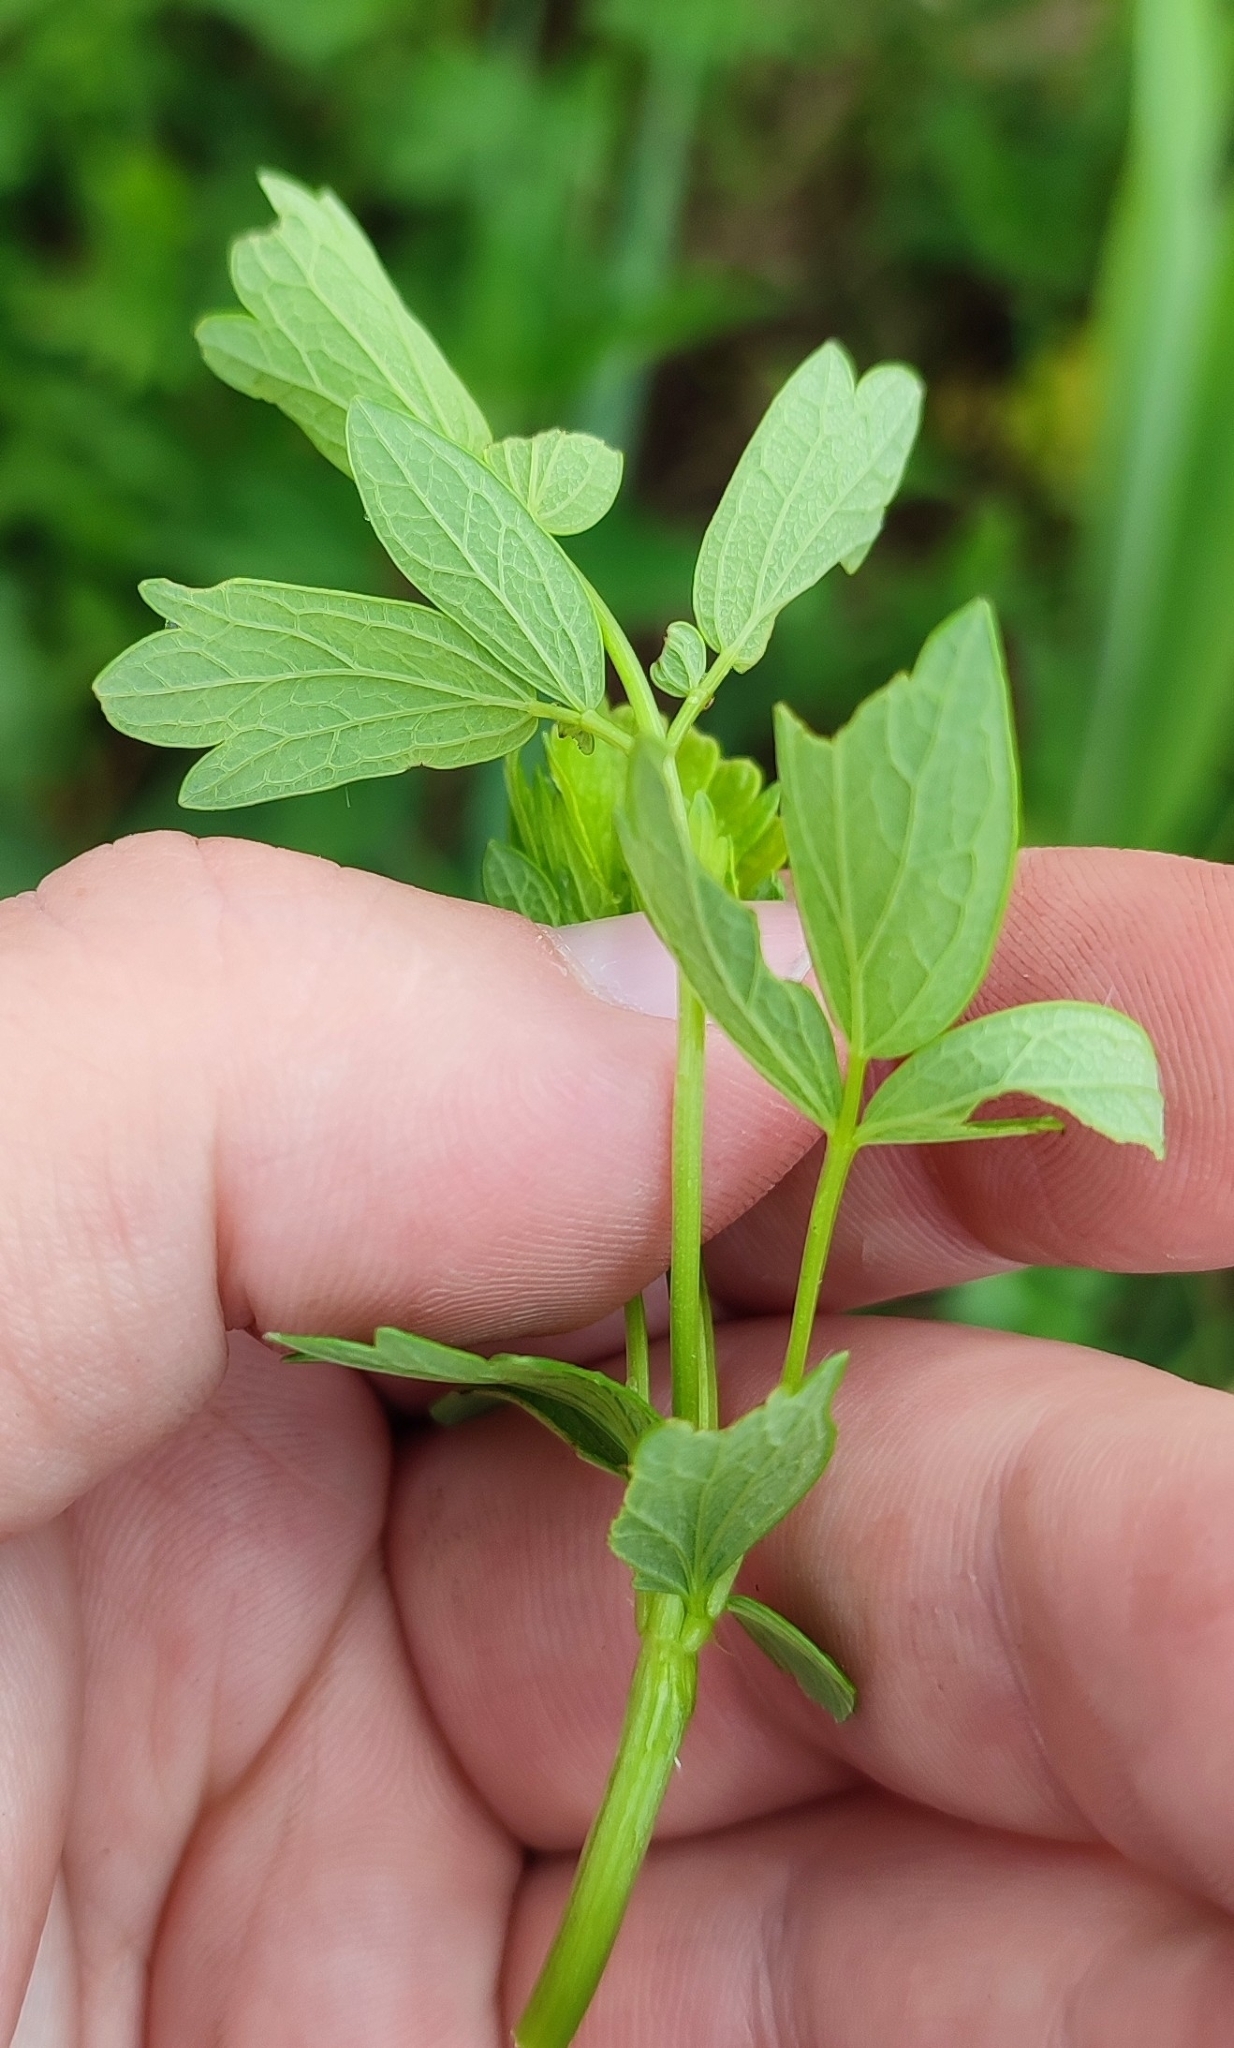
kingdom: Plantae
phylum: Tracheophyta
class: Magnoliopsida
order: Ranunculales
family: Ranunculaceae
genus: Thalictrum
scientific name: Thalictrum simplex
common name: Small meadow-rue
